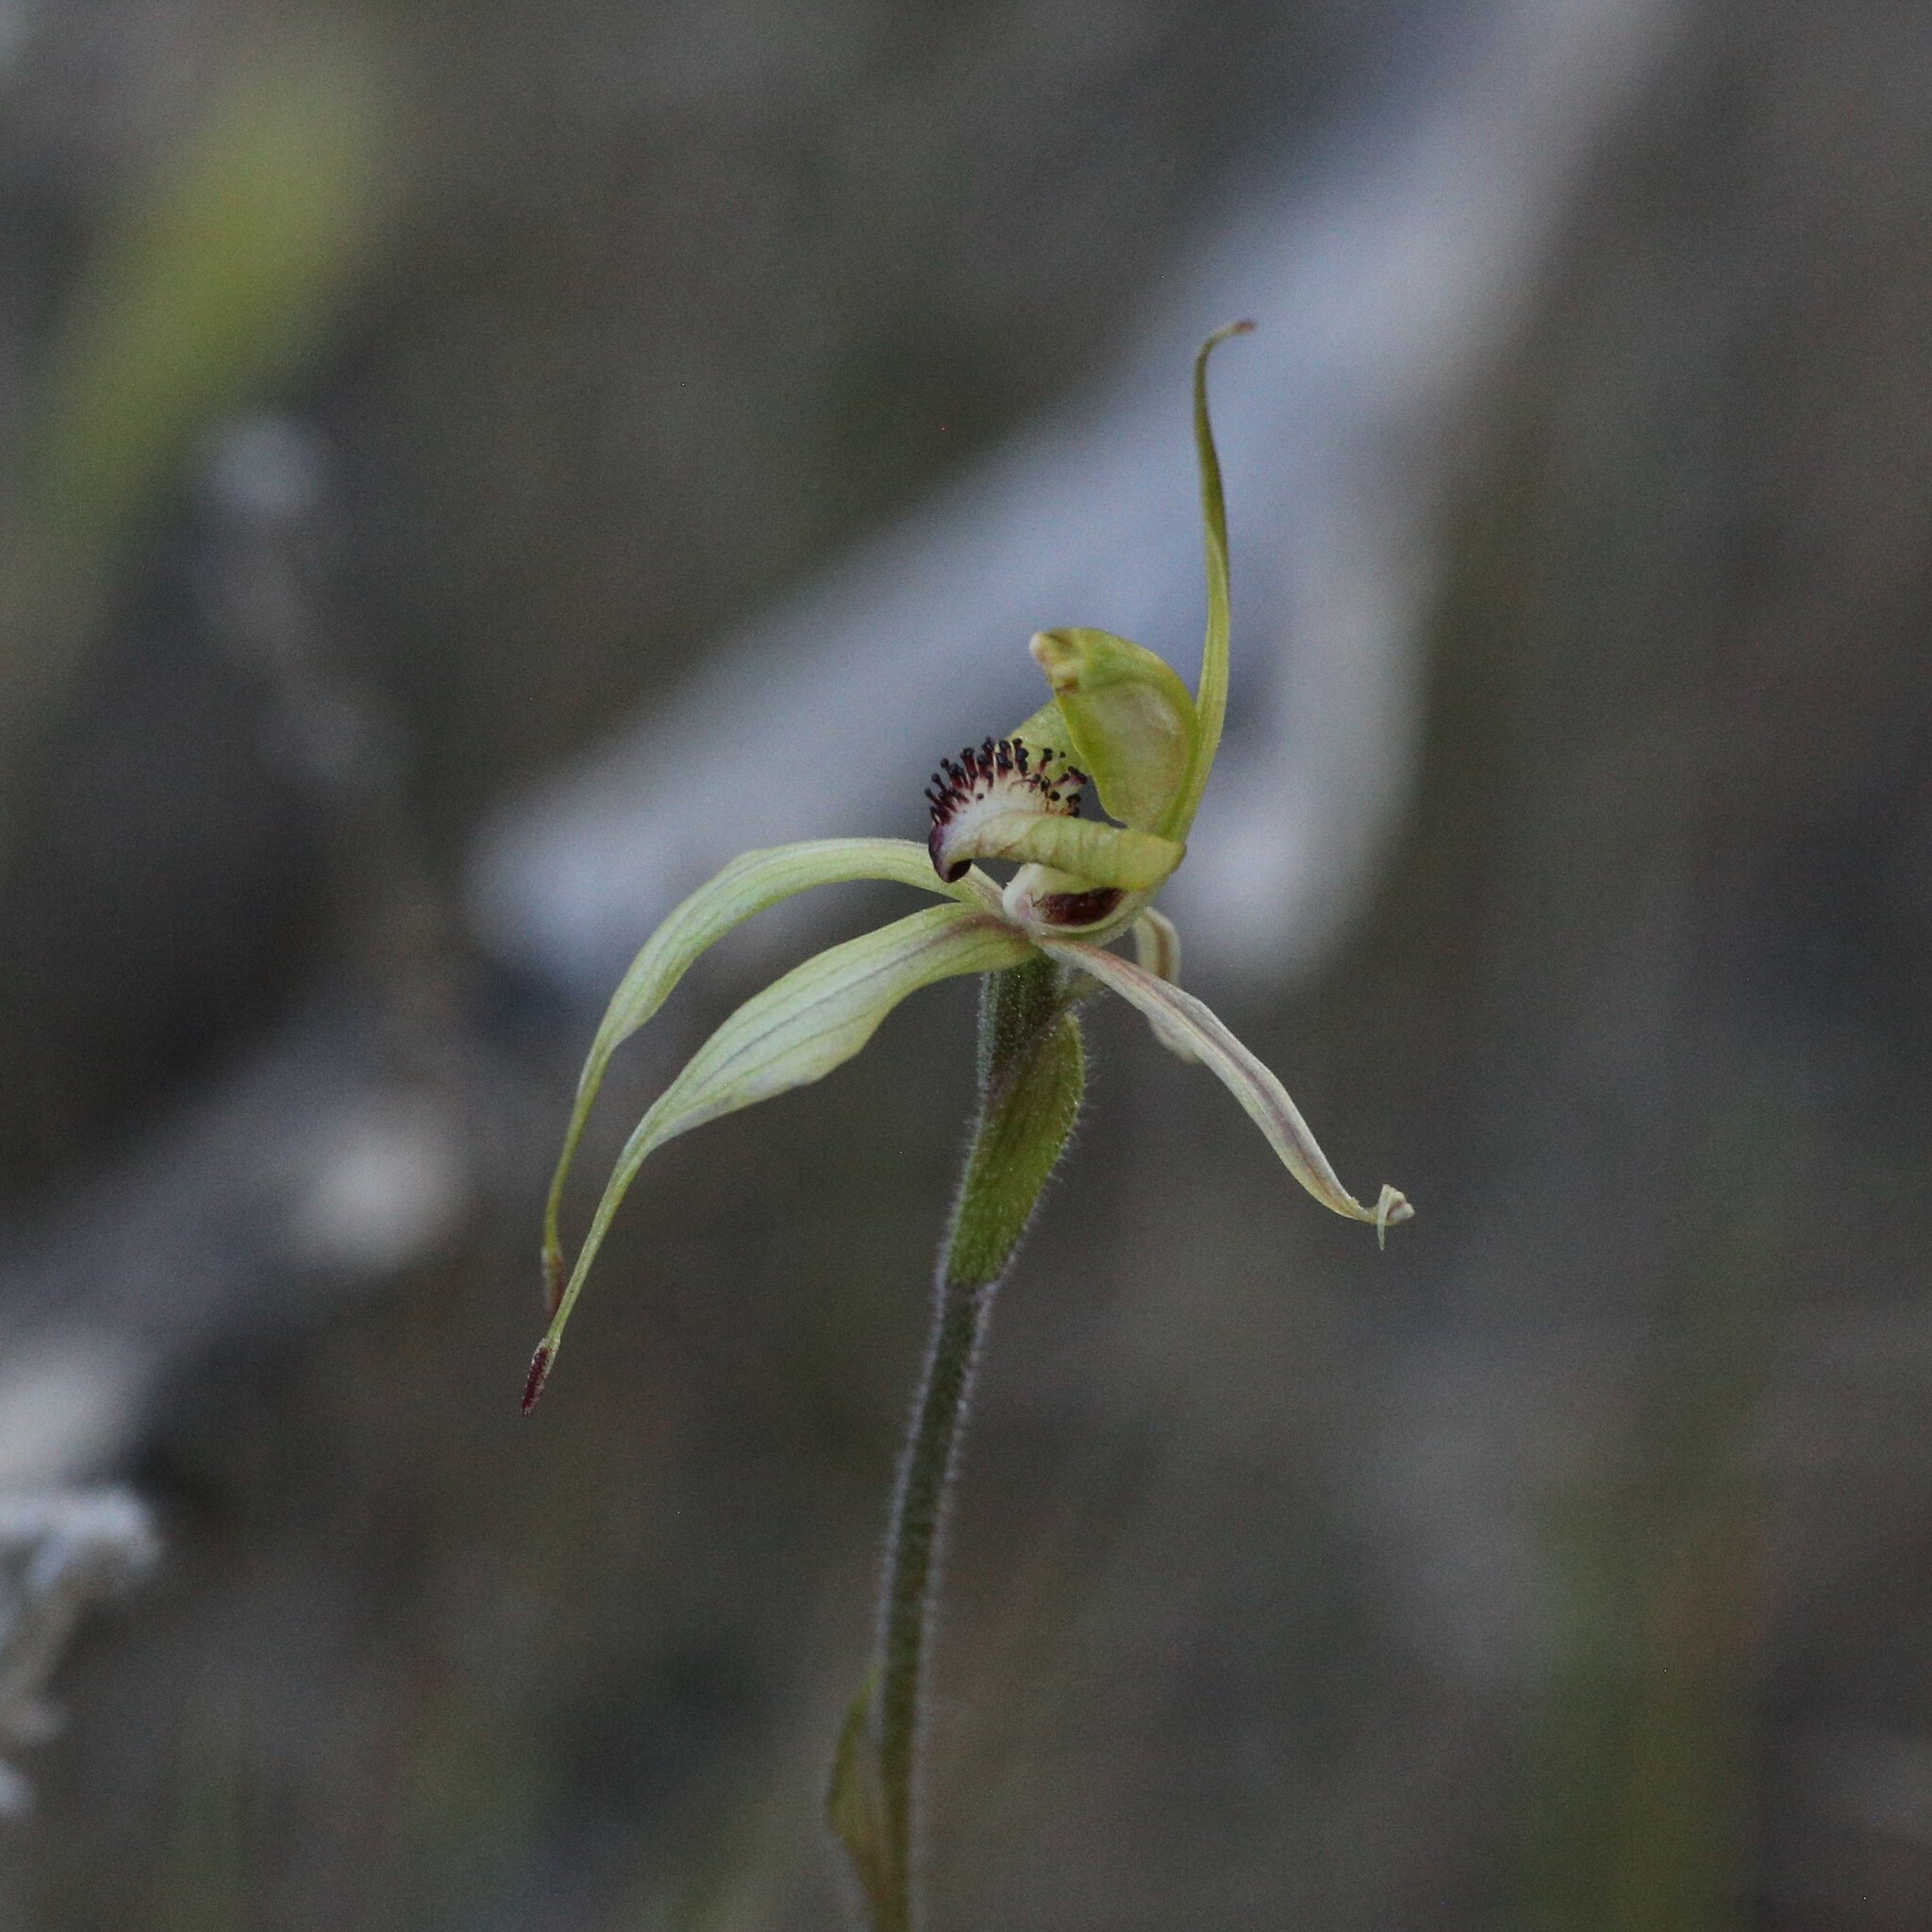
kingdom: Plantae
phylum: Tracheophyta
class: Liliopsida
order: Asparagales
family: Orchidaceae
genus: Caladenia
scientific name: Caladenia cristata
